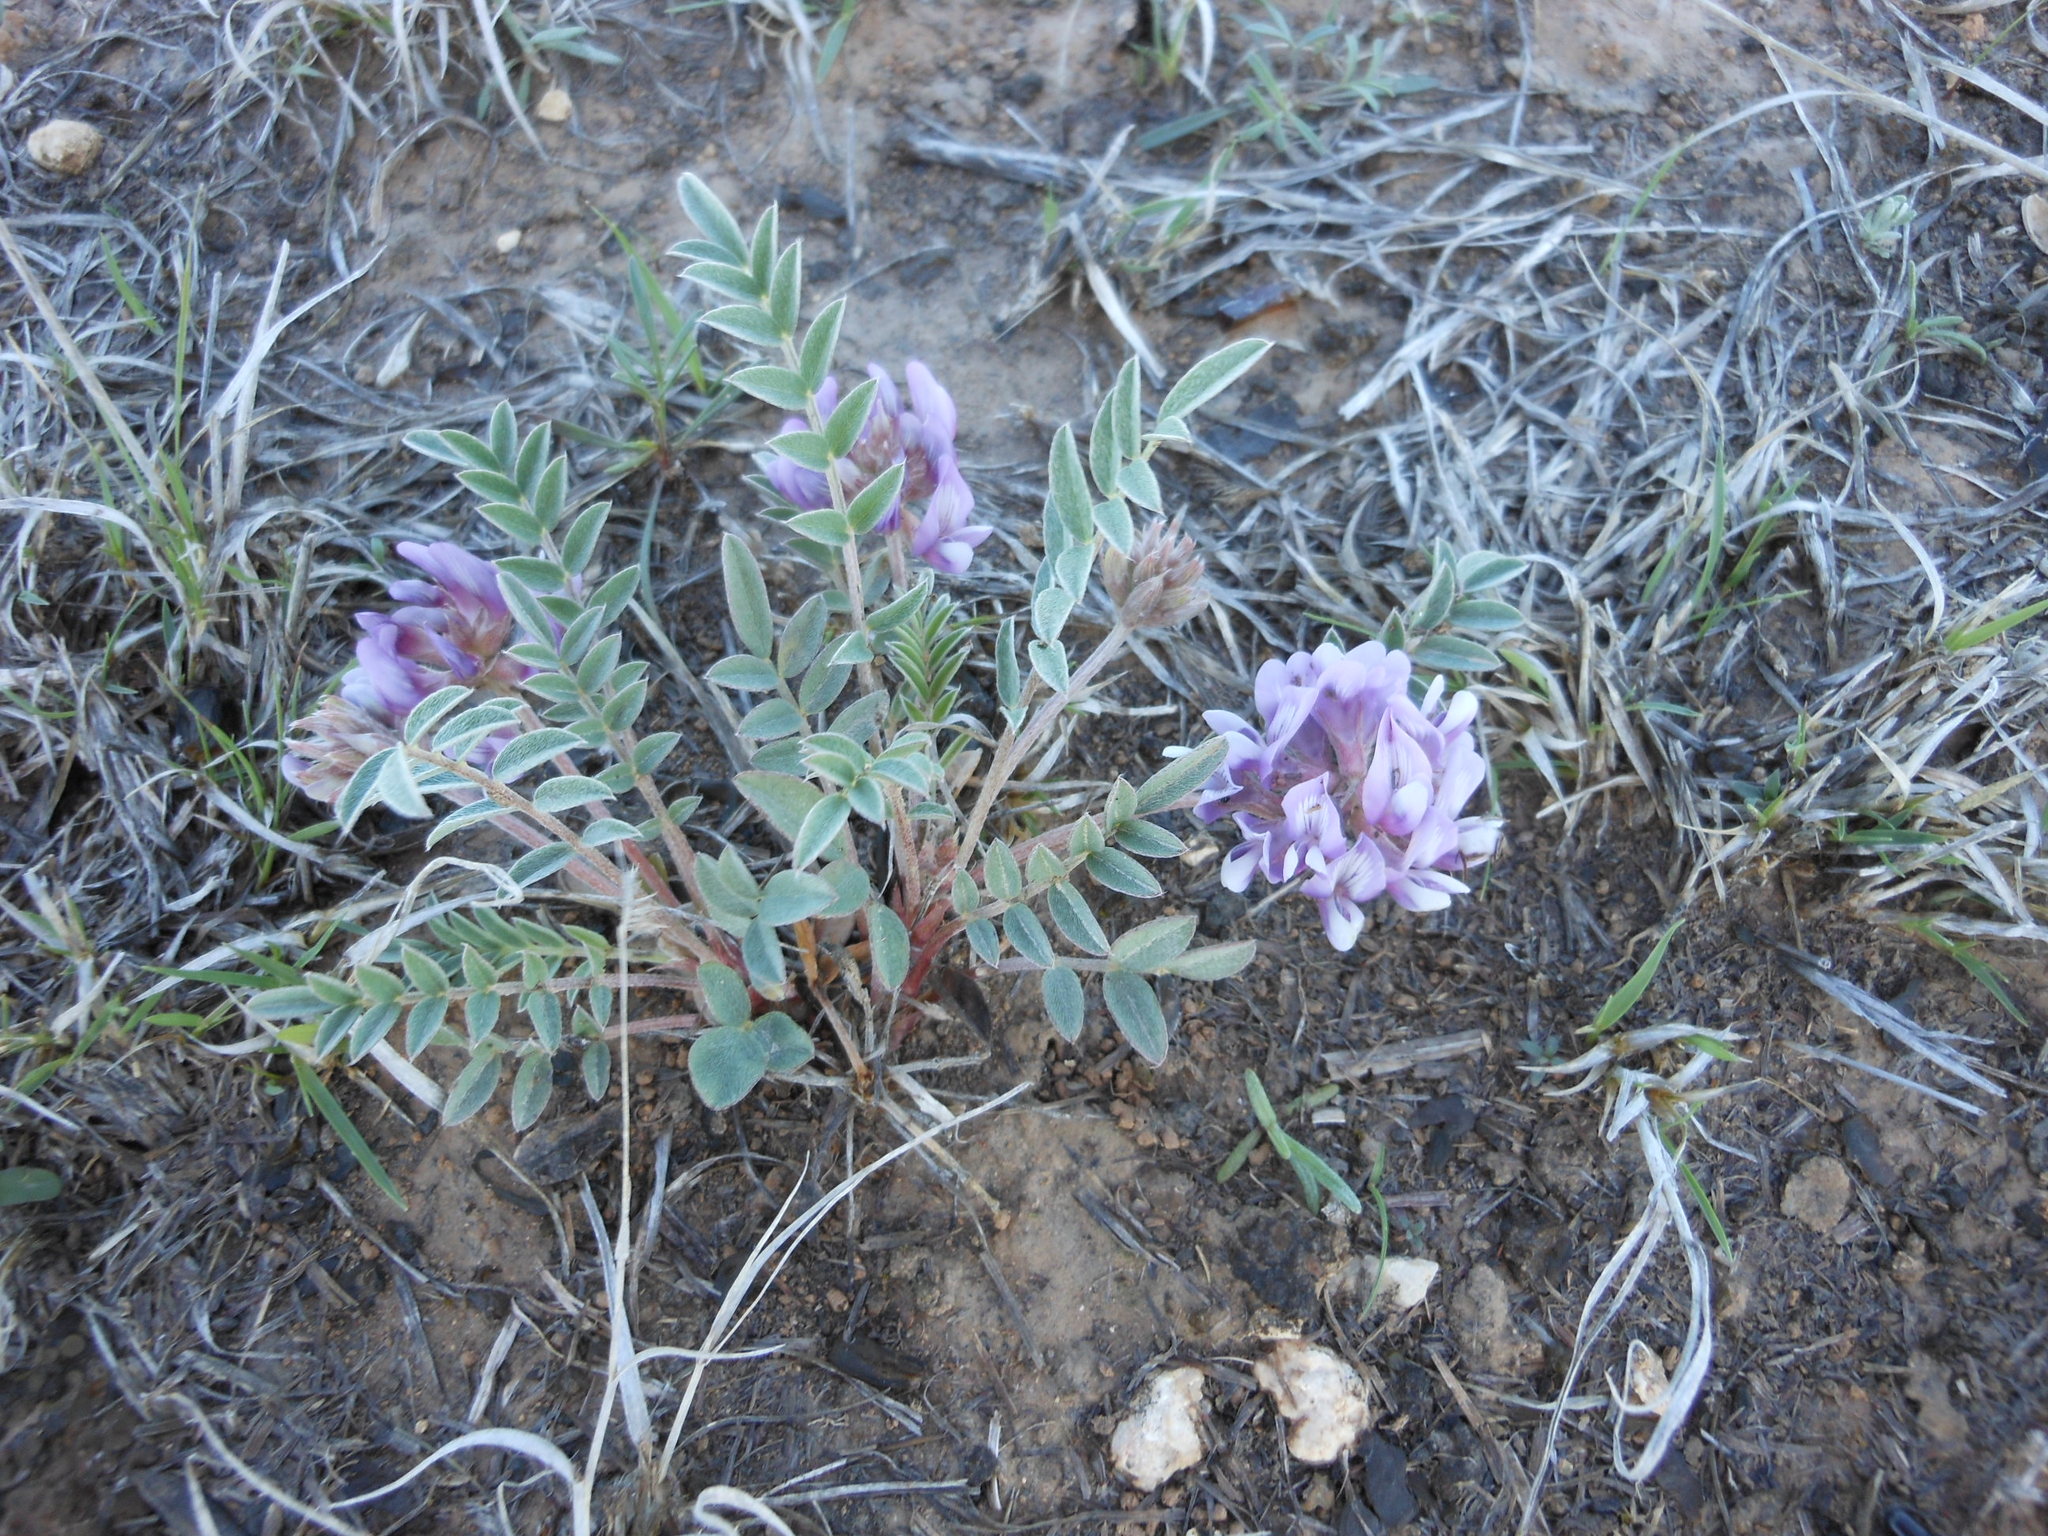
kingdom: Plantae
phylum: Tracheophyta
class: Magnoliopsida
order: Fabales
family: Fabaceae
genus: Astragalus
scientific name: Astragalus lotiflorus
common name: Lotus milk-vetch
